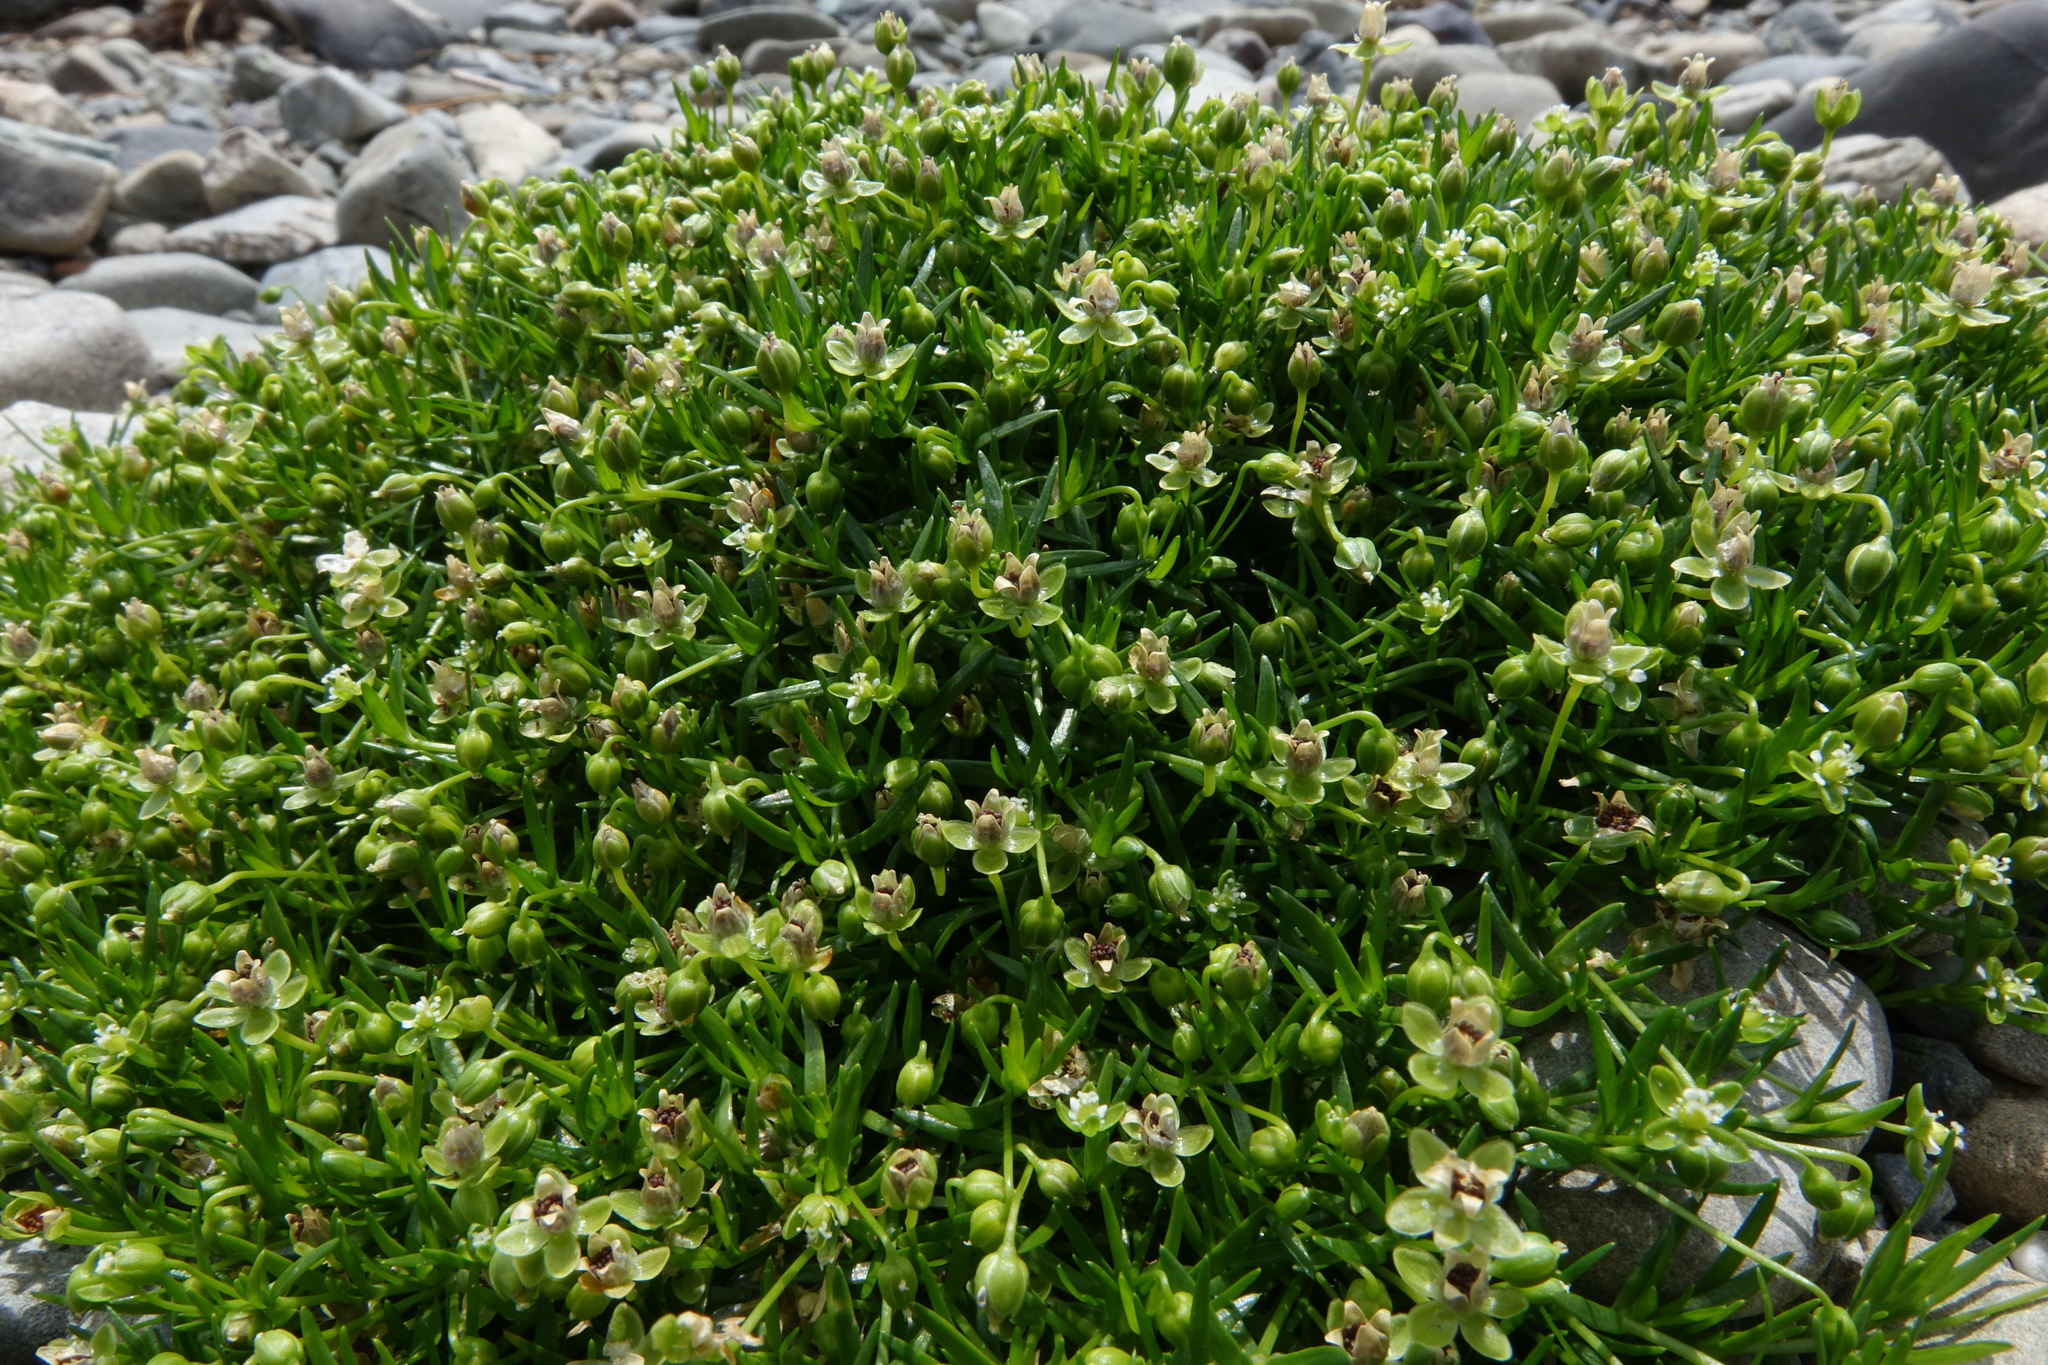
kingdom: Plantae
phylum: Tracheophyta
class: Magnoliopsida
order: Caryophyllales
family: Caryophyllaceae
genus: Sagina
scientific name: Sagina procumbens
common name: Procumbent pearlwort
